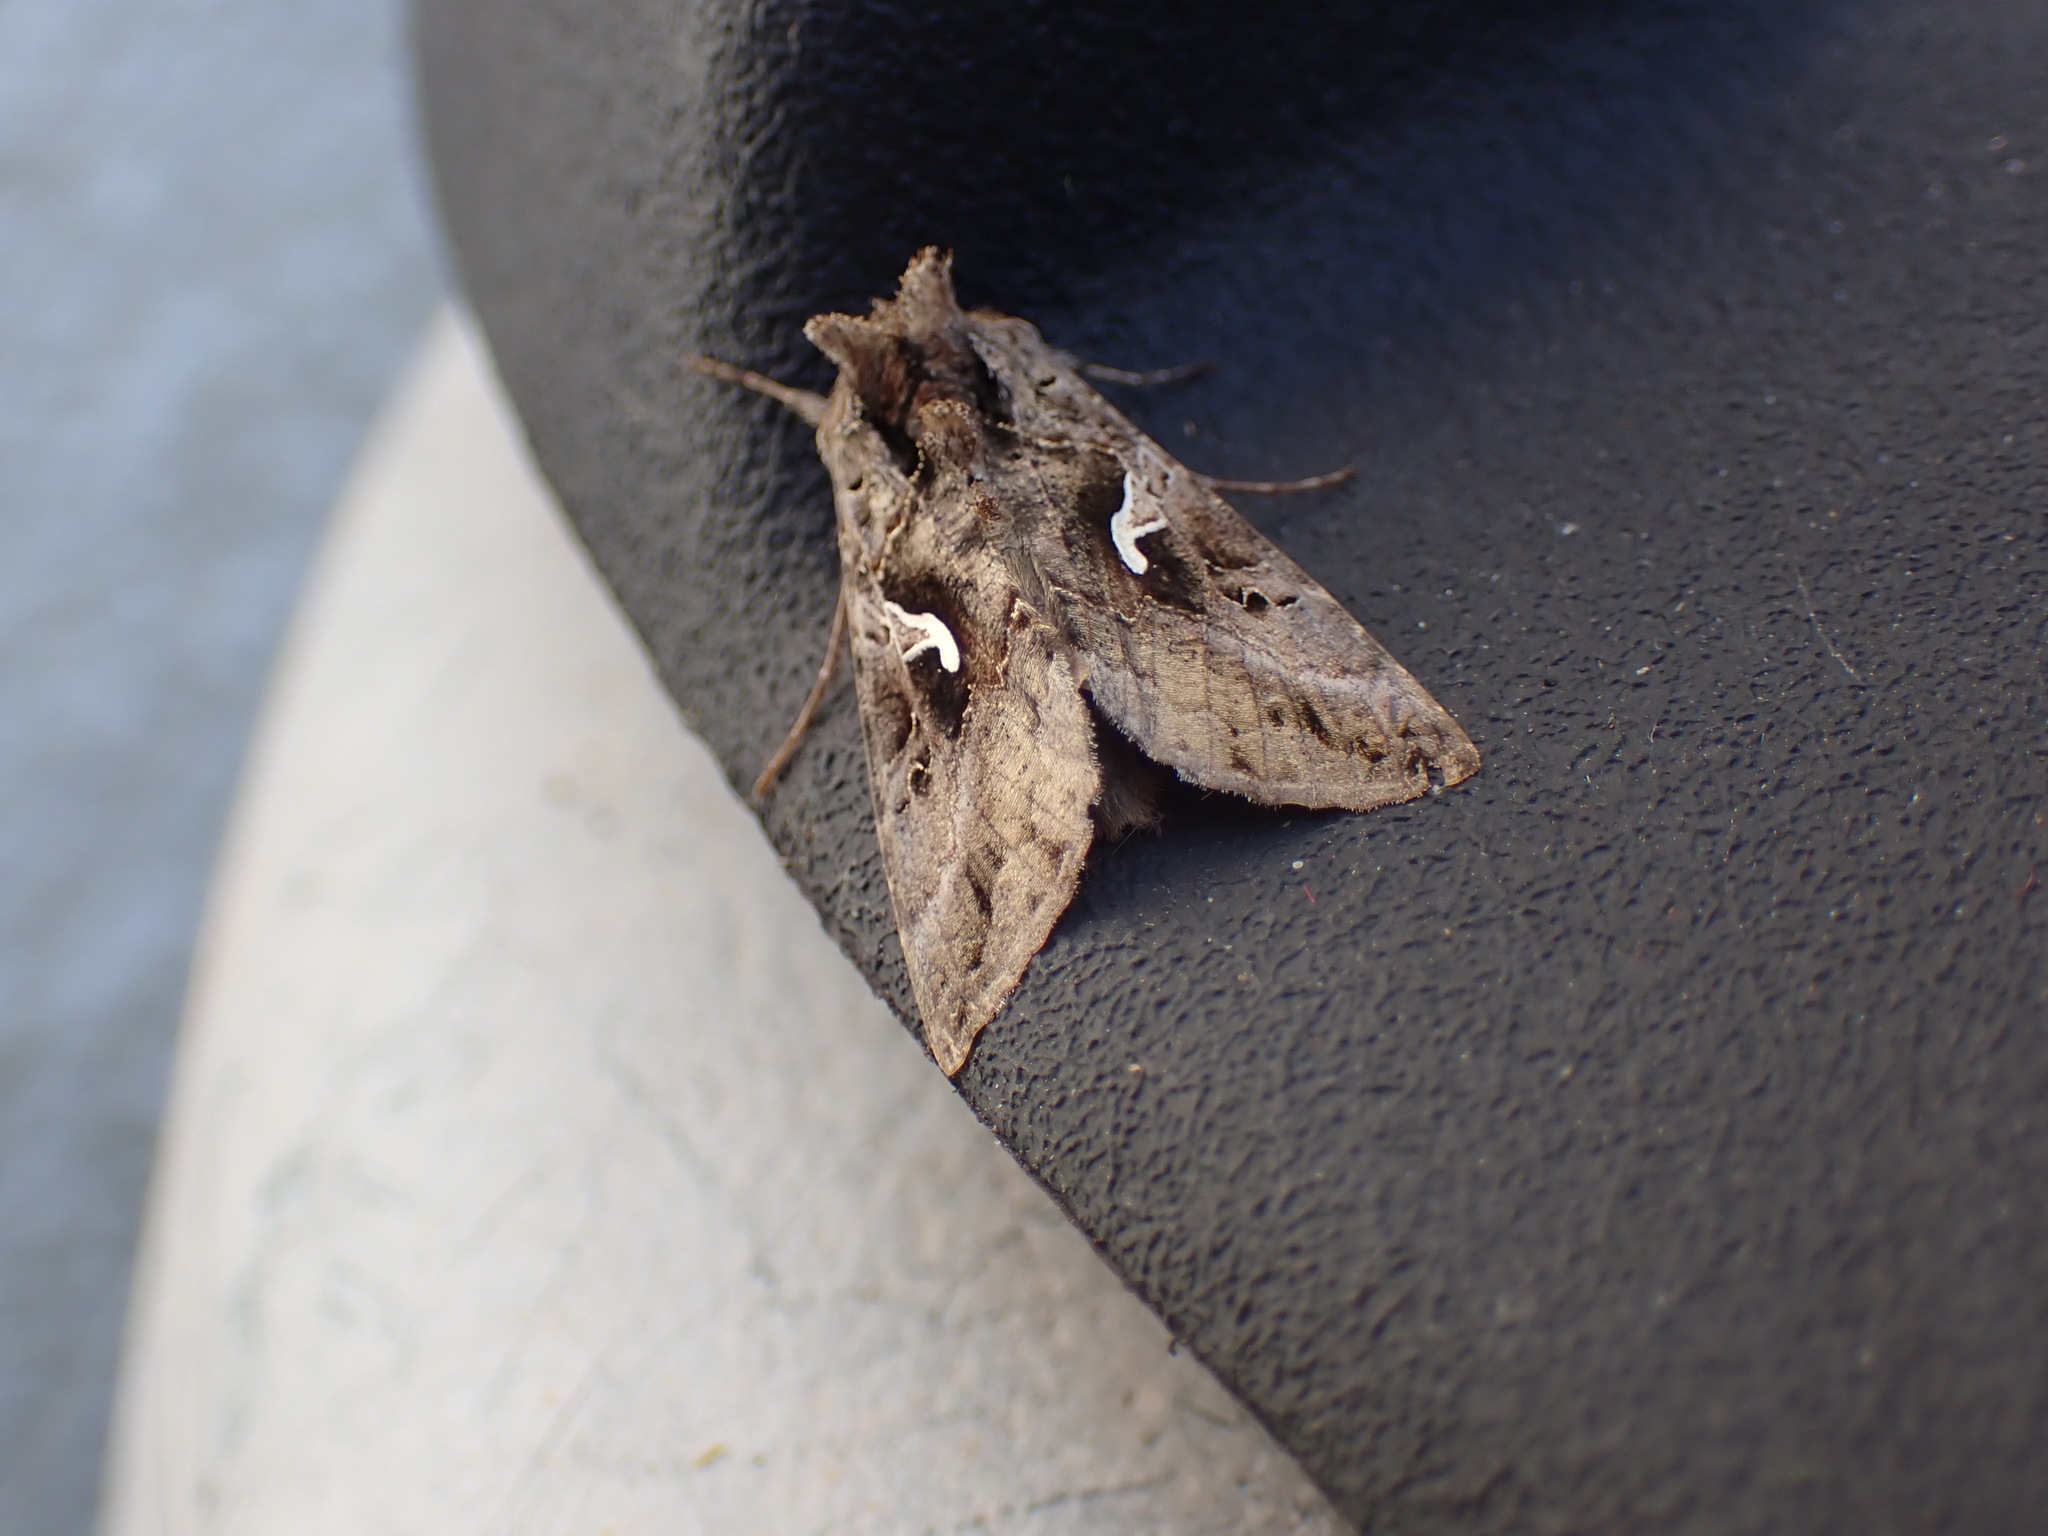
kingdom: Animalia
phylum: Arthropoda
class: Insecta
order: Lepidoptera
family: Noctuidae
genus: Autographa
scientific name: Autographa gamma
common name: Silver y
